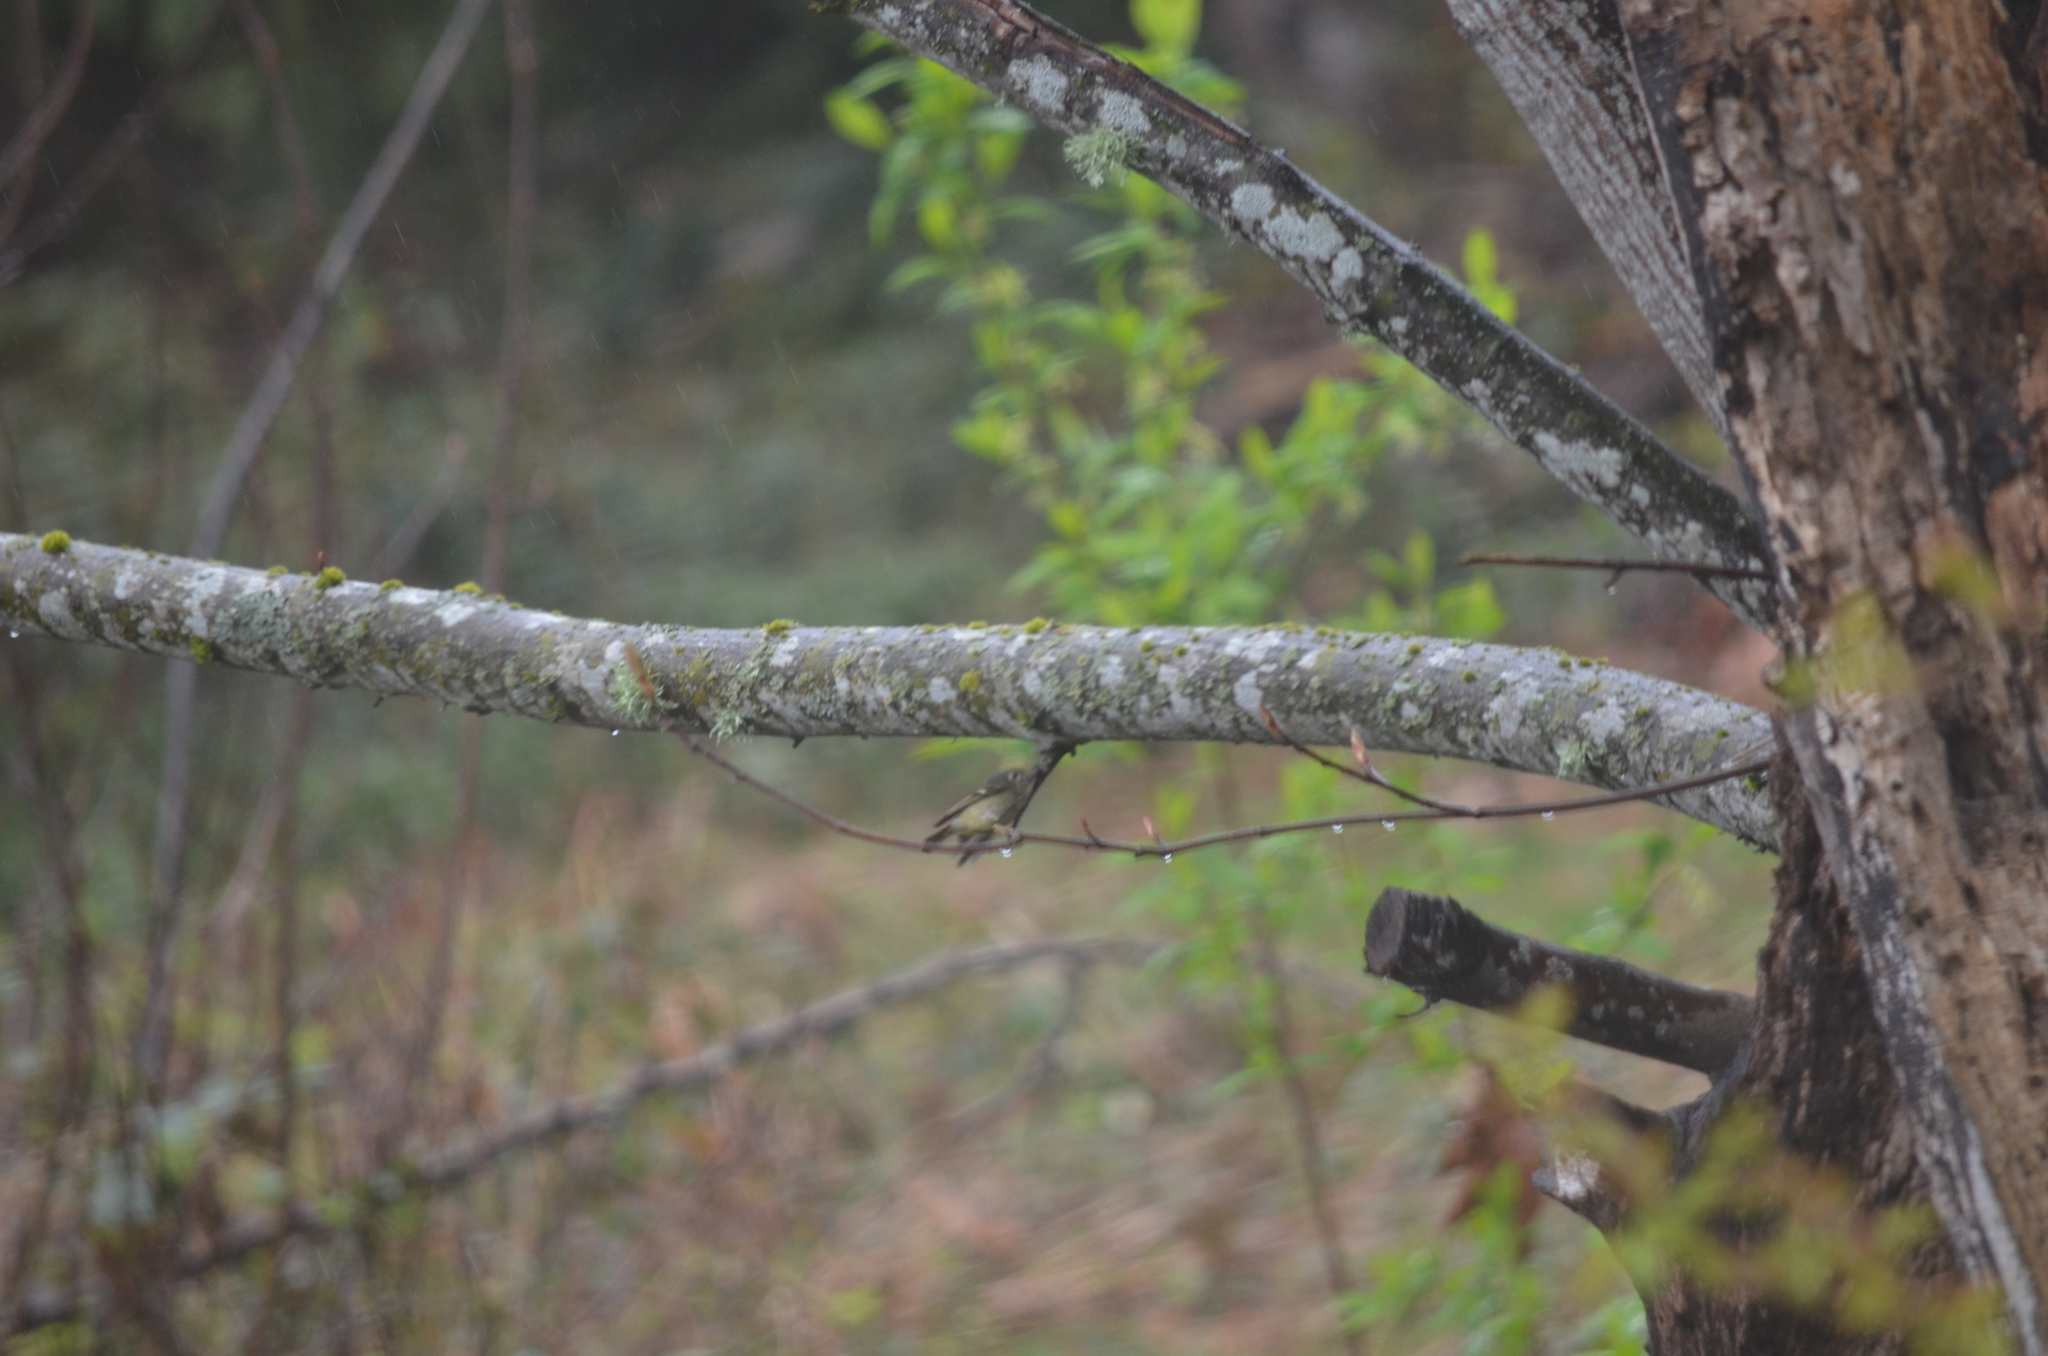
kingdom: Animalia
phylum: Chordata
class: Aves
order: Passeriformes
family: Regulidae
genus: Regulus
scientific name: Regulus calendula
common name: Ruby-crowned kinglet
